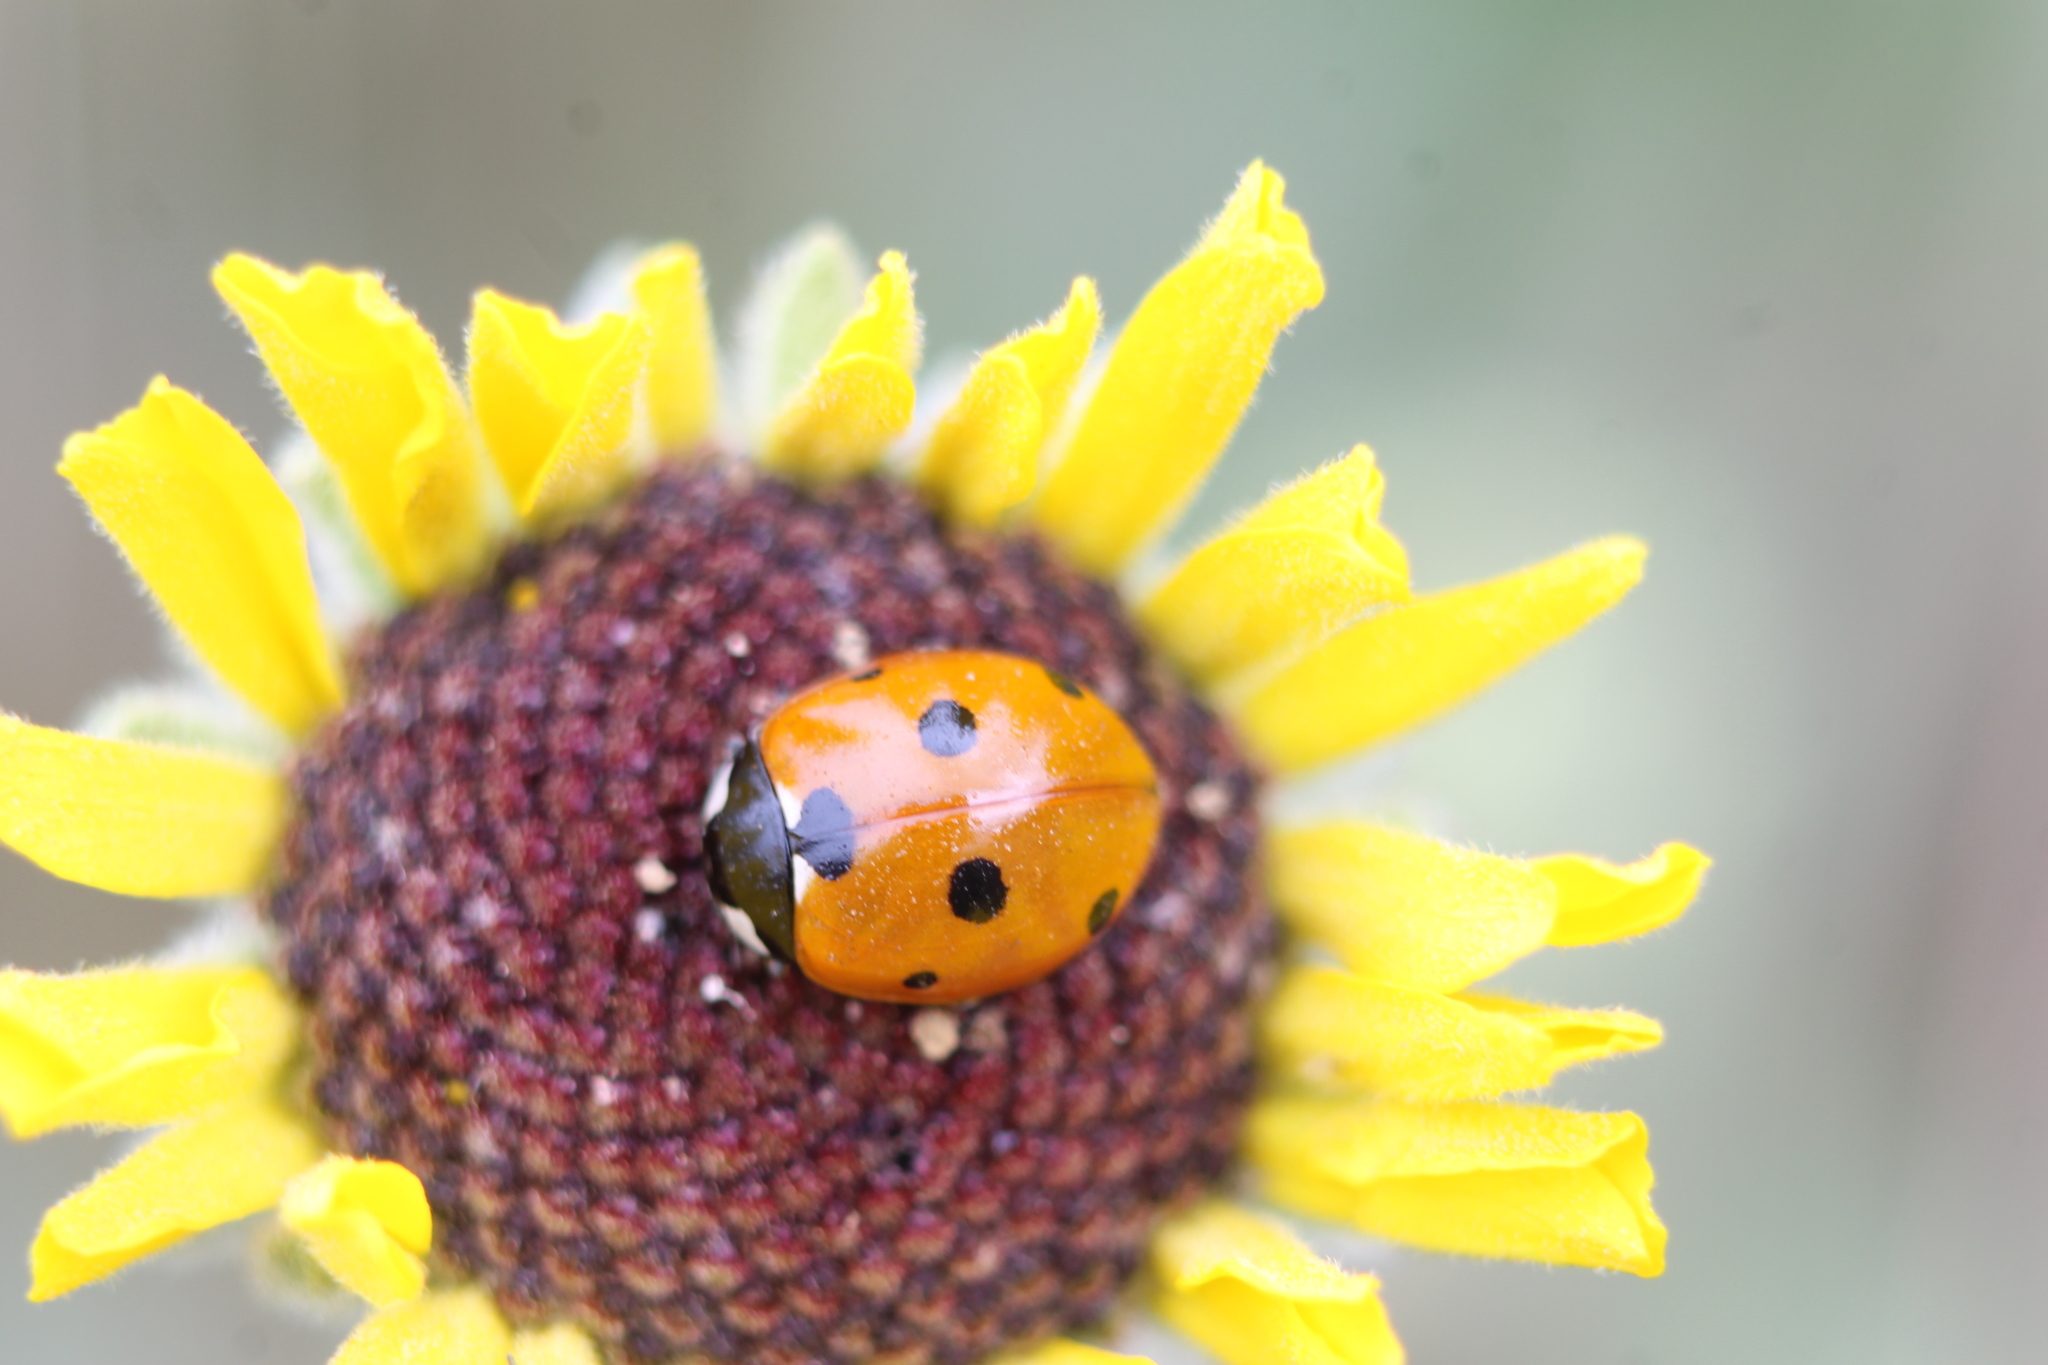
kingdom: Animalia
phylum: Arthropoda
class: Insecta
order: Coleoptera
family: Coccinellidae
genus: Coccinella
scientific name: Coccinella septempunctata
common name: Sevenspotted lady beetle
